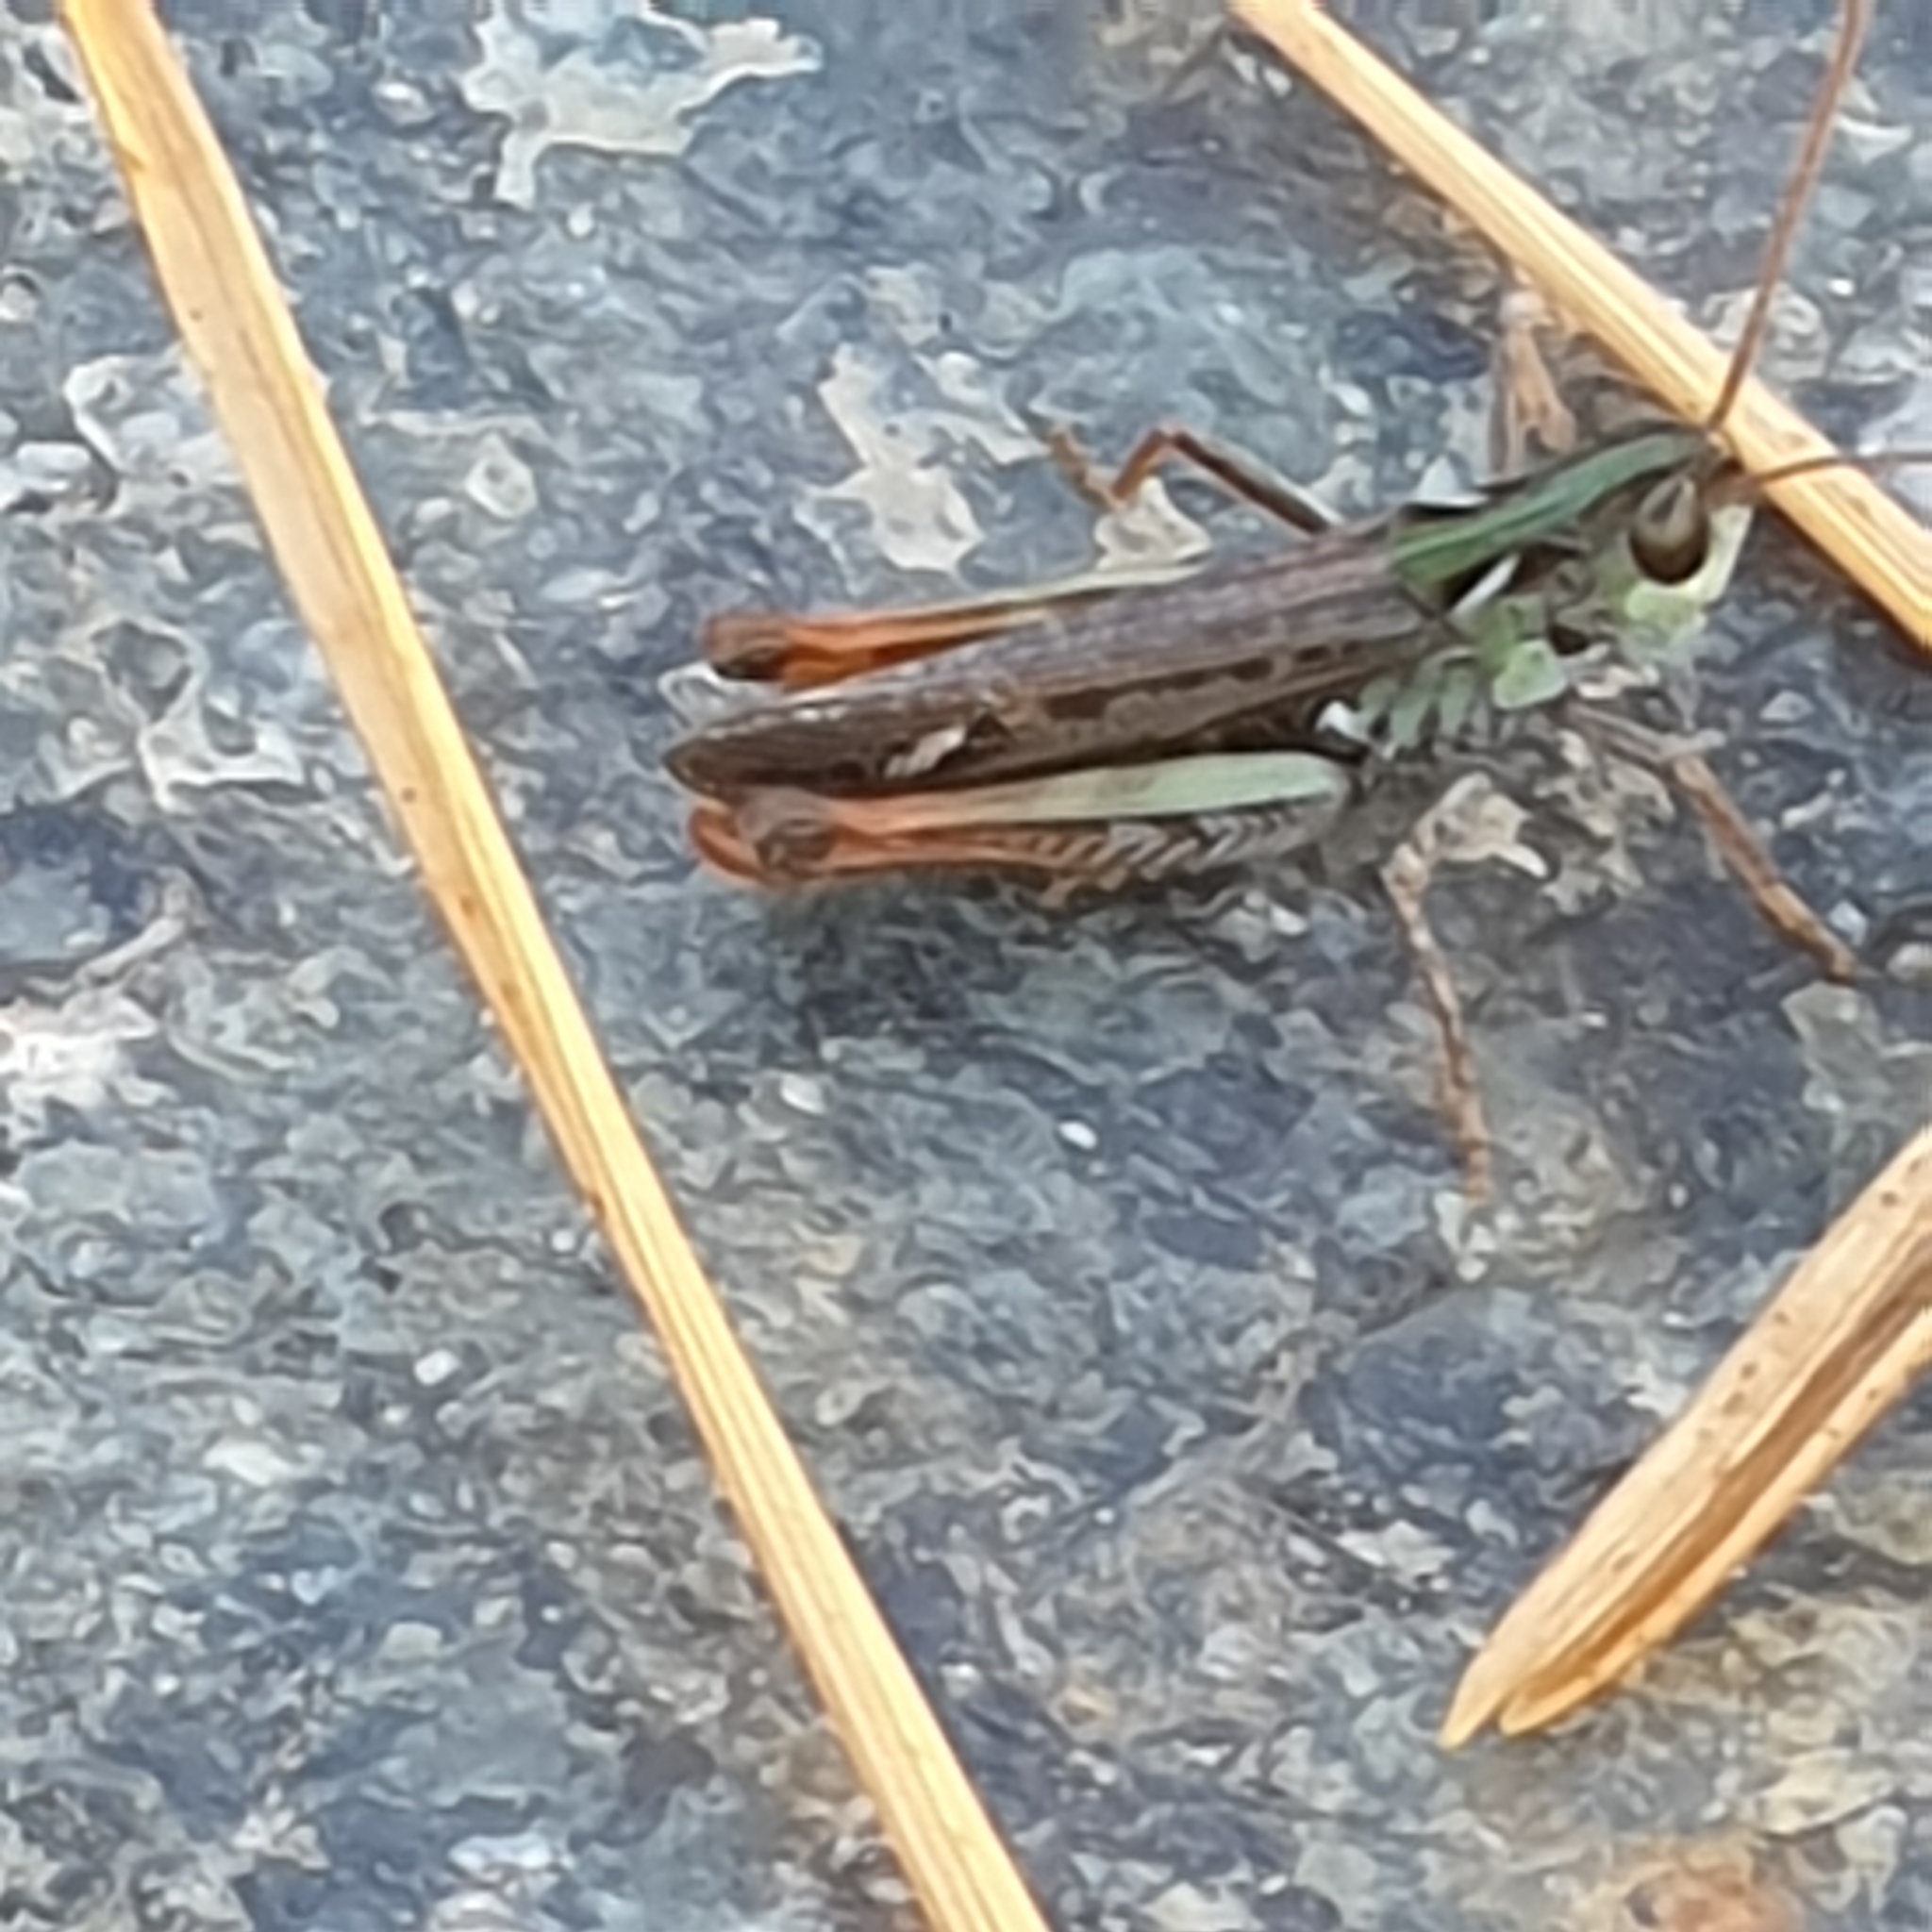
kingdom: Animalia
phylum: Arthropoda
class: Insecta
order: Orthoptera
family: Acrididae
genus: Myrmeleotettix
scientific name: Myrmeleotettix maculatus
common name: Mottled grasshopper
